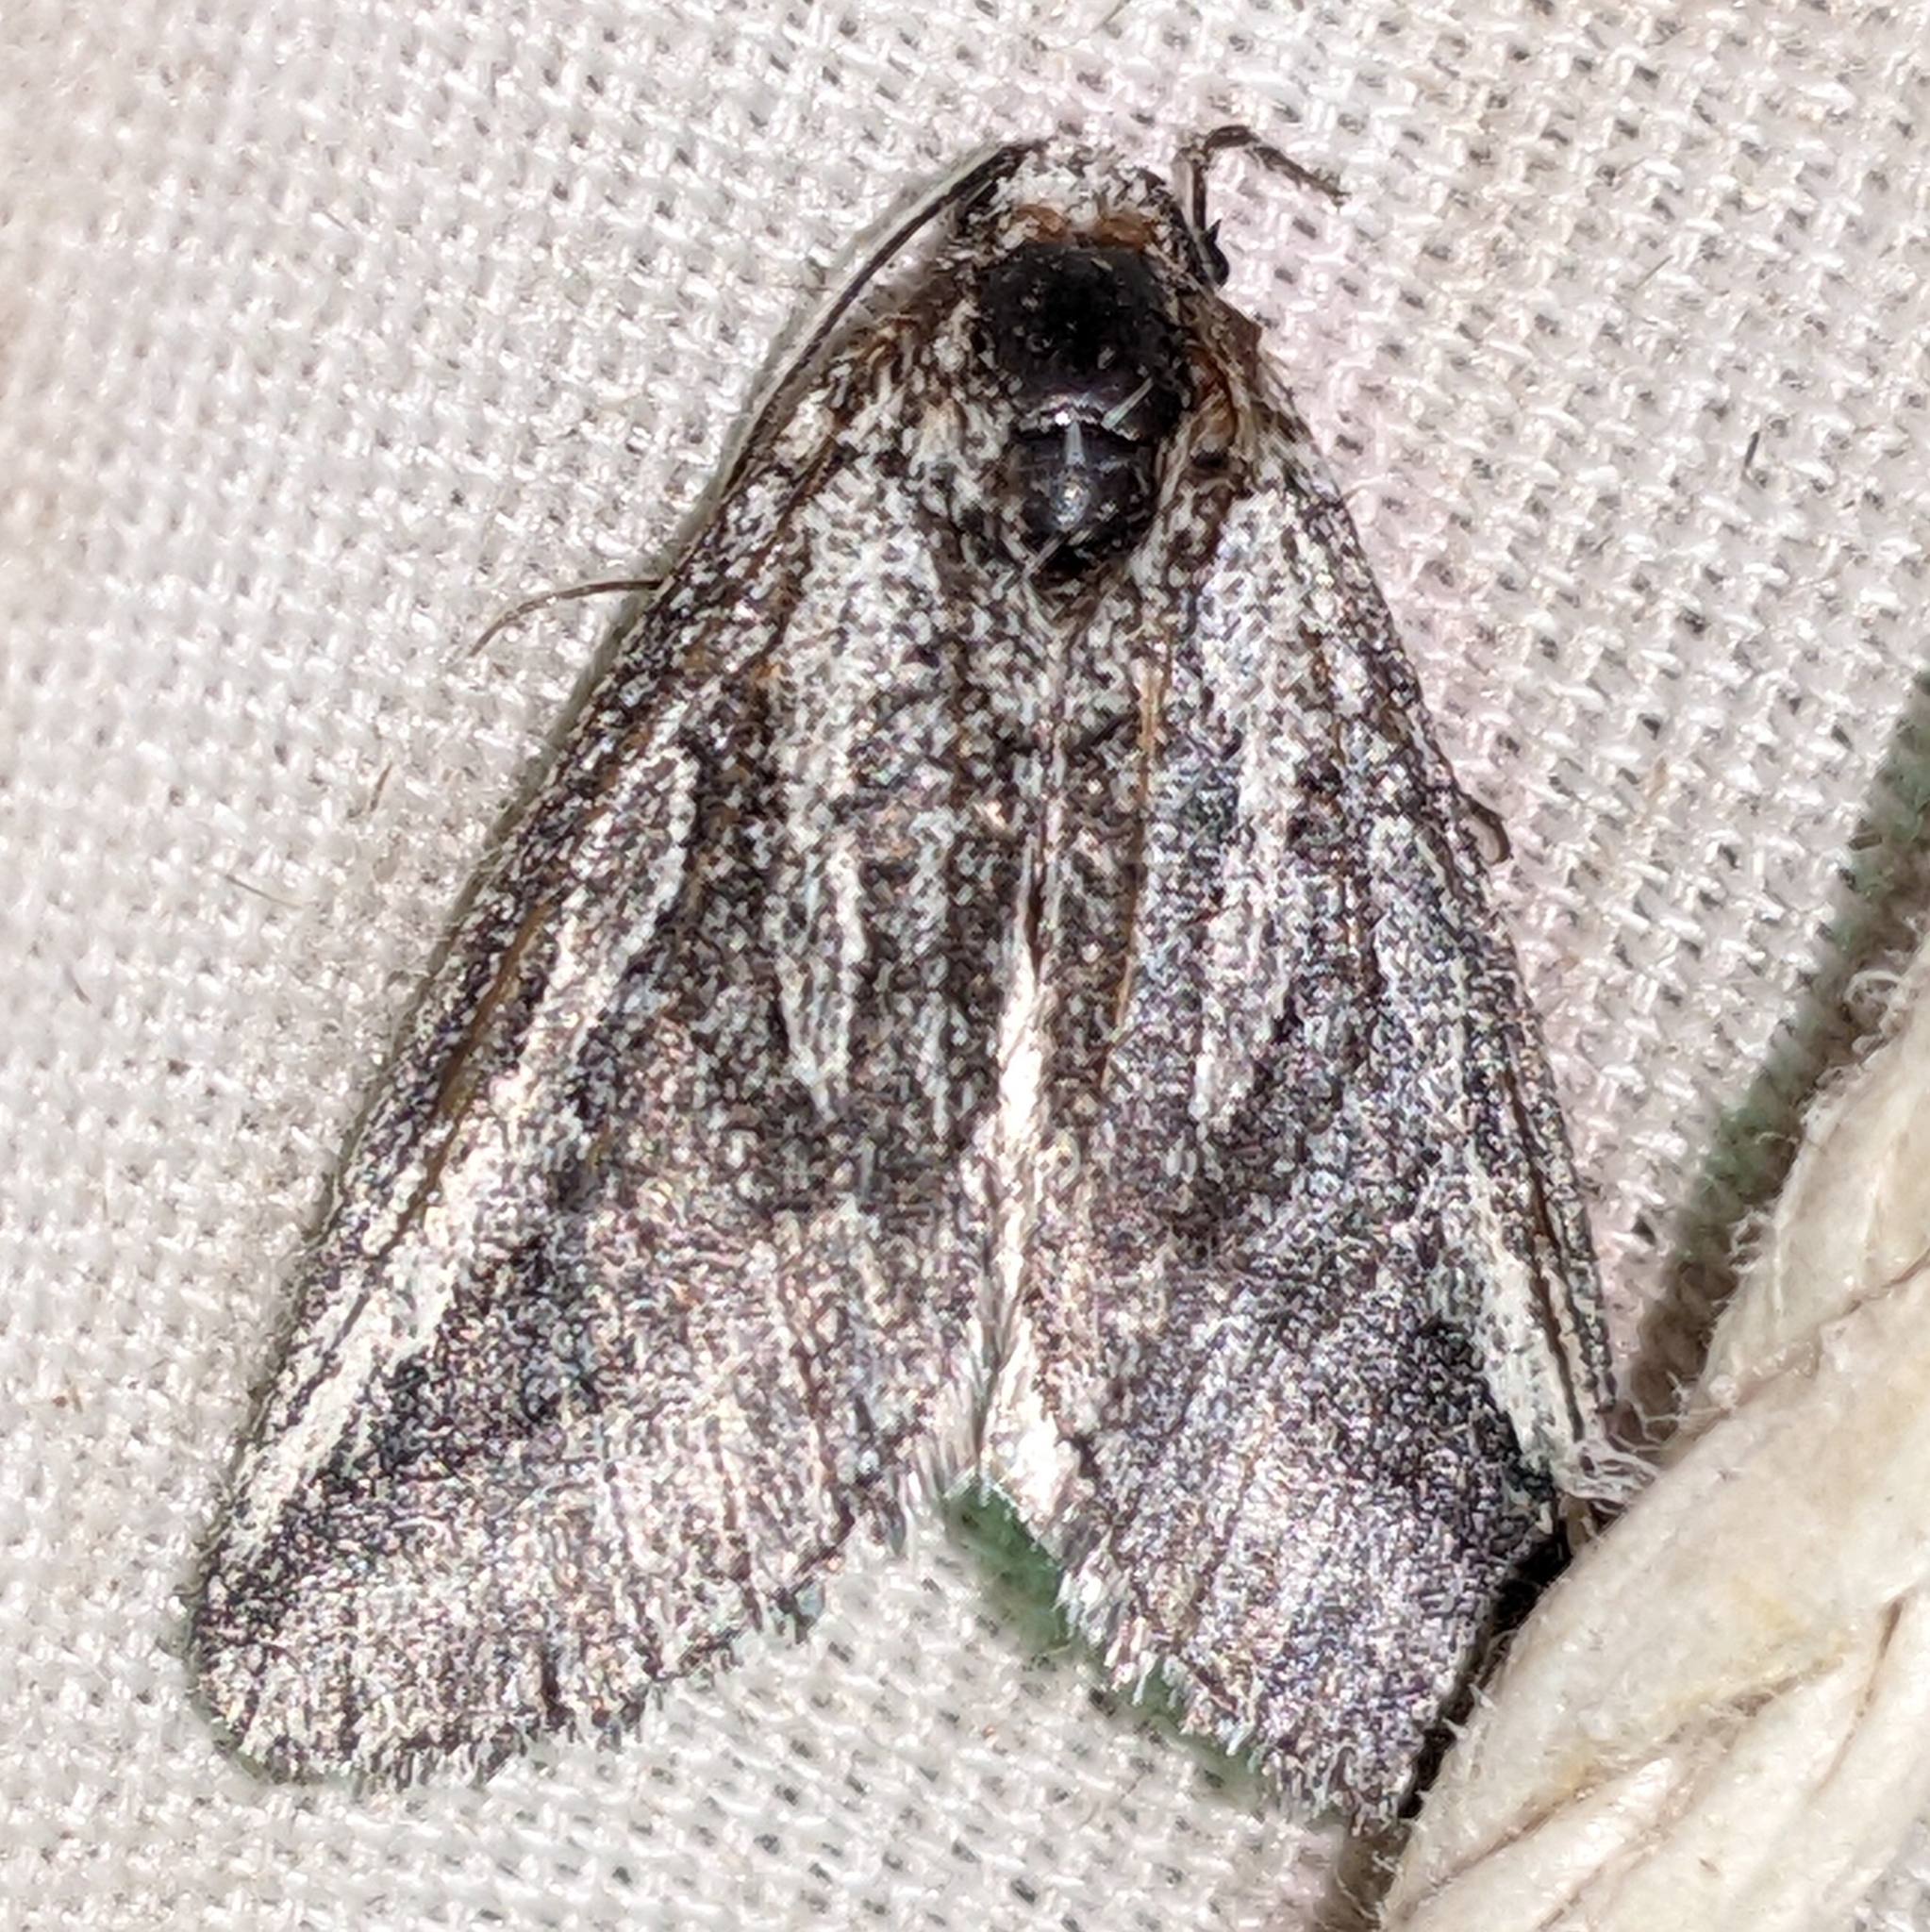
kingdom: Animalia
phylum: Arthropoda
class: Insecta
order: Lepidoptera
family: Noctuidae
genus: Oxycnemis
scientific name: Oxycnemis fusimacula
